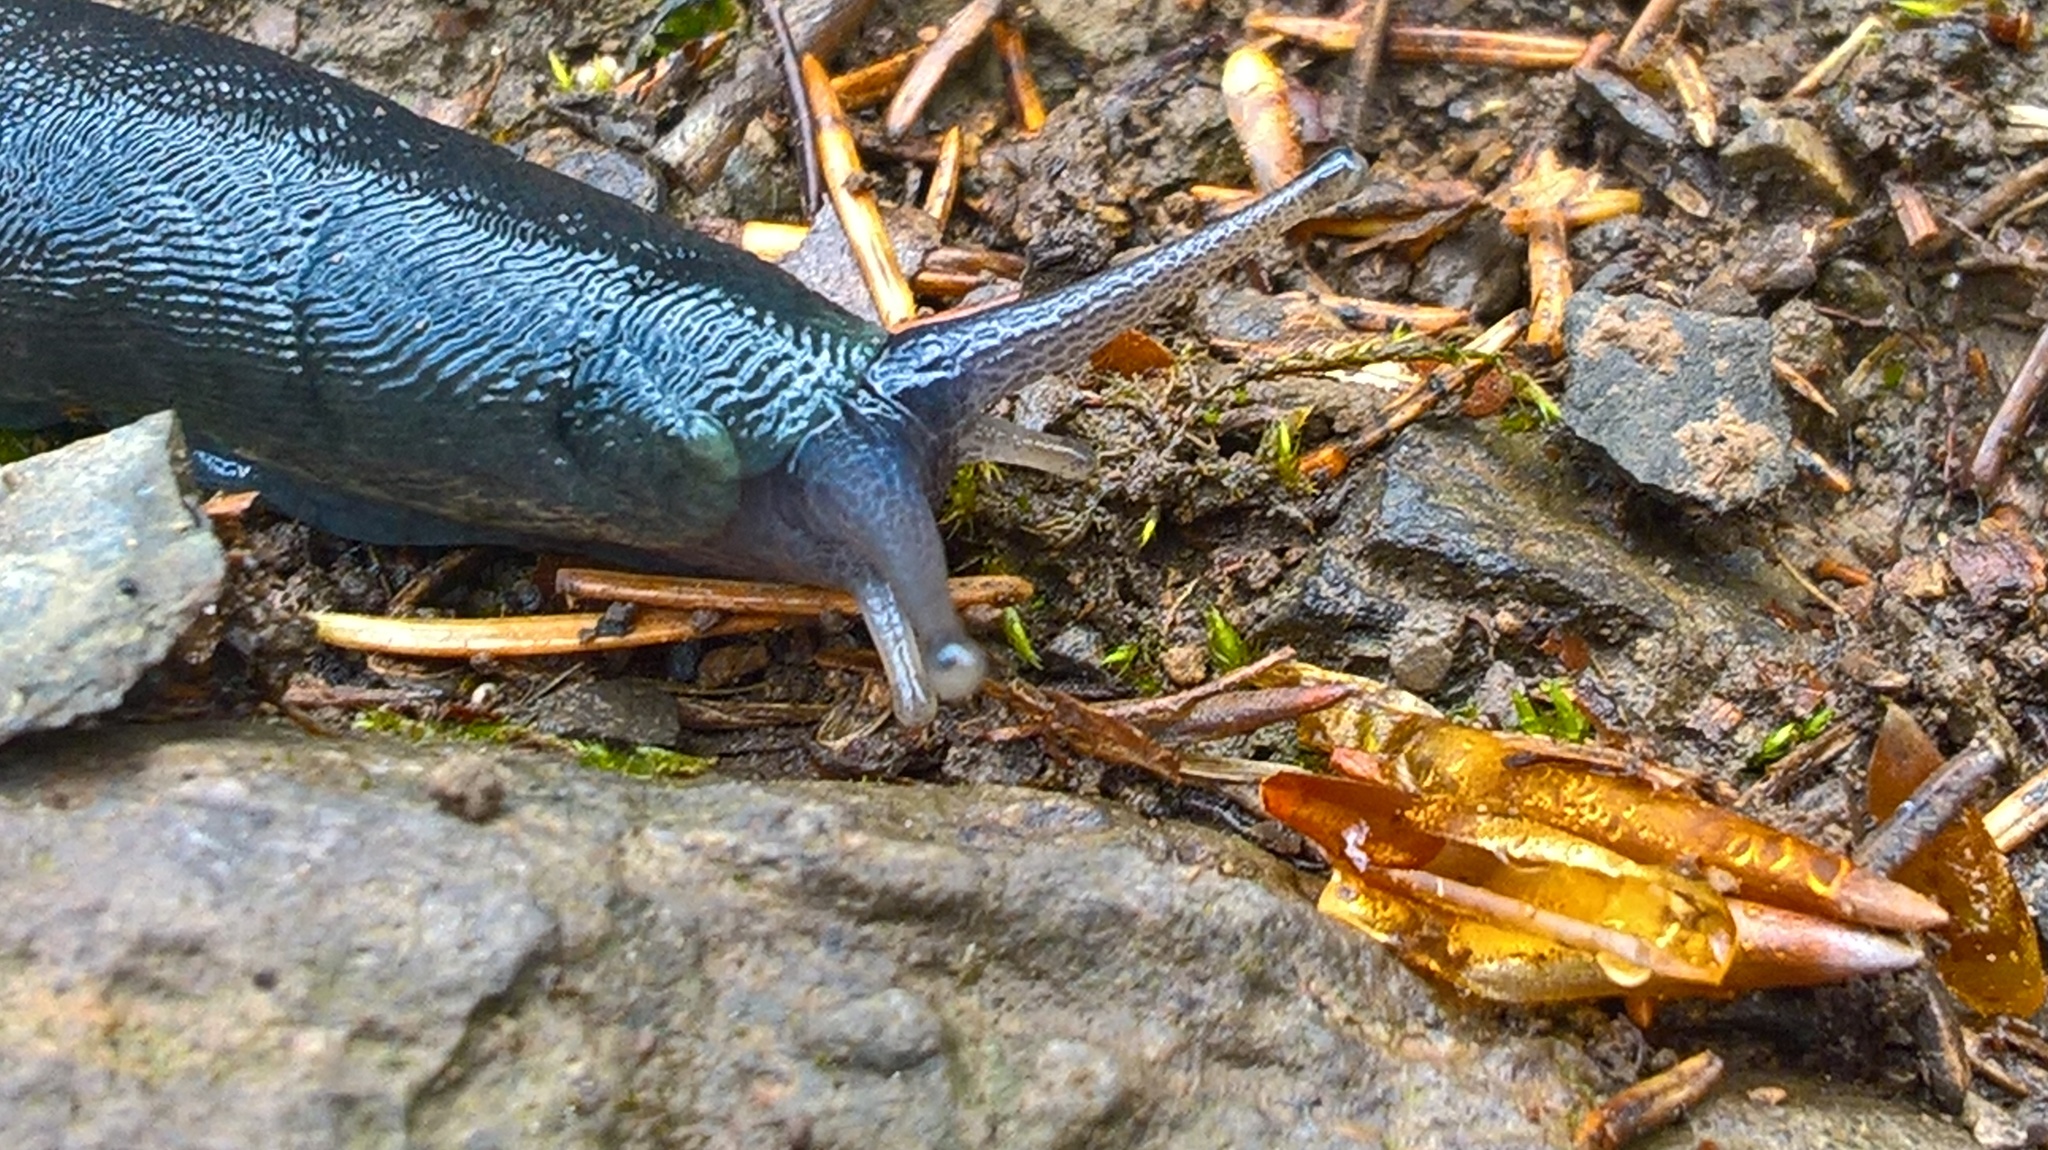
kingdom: Animalia
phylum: Mollusca
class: Gastropoda
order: Stylommatophora
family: Limacidae
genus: Limax
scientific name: Limax cinereoniger
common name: Ash-black slug
